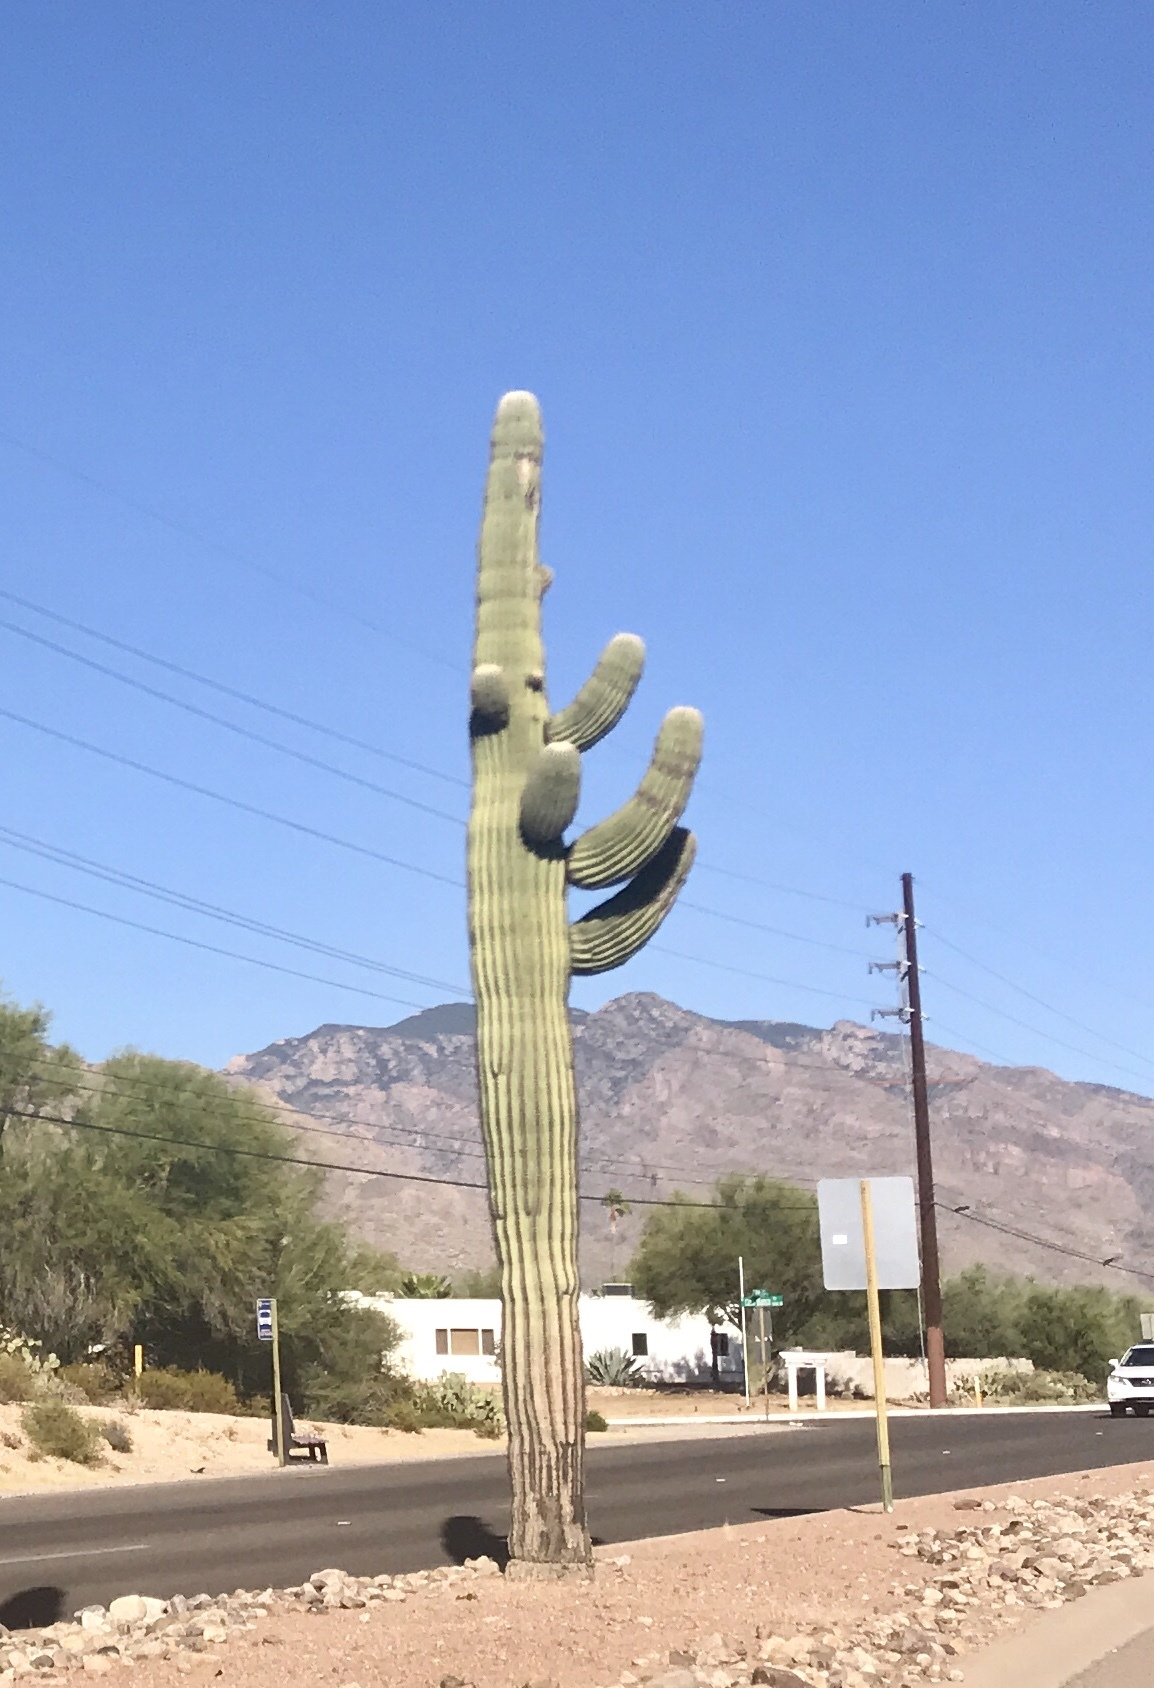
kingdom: Plantae
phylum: Tracheophyta
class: Magnoliopsida
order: Caryophyllales
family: Cactaceae
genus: Carnegiea
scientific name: Carnegiea gigantea
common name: Saguaro
